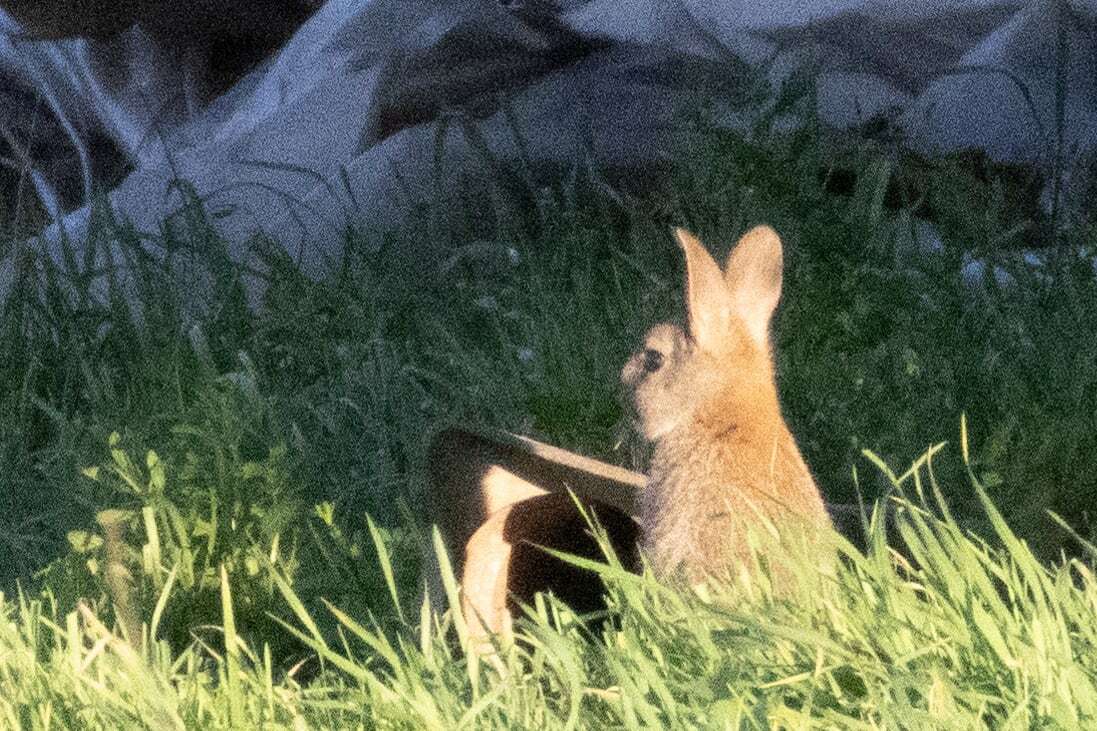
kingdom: Animalia
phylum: Chordata
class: Mammalia
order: Lagomorpha
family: Leporidae
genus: Oryctolagus
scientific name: Oryctolagus cuniculus
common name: European rabbit
